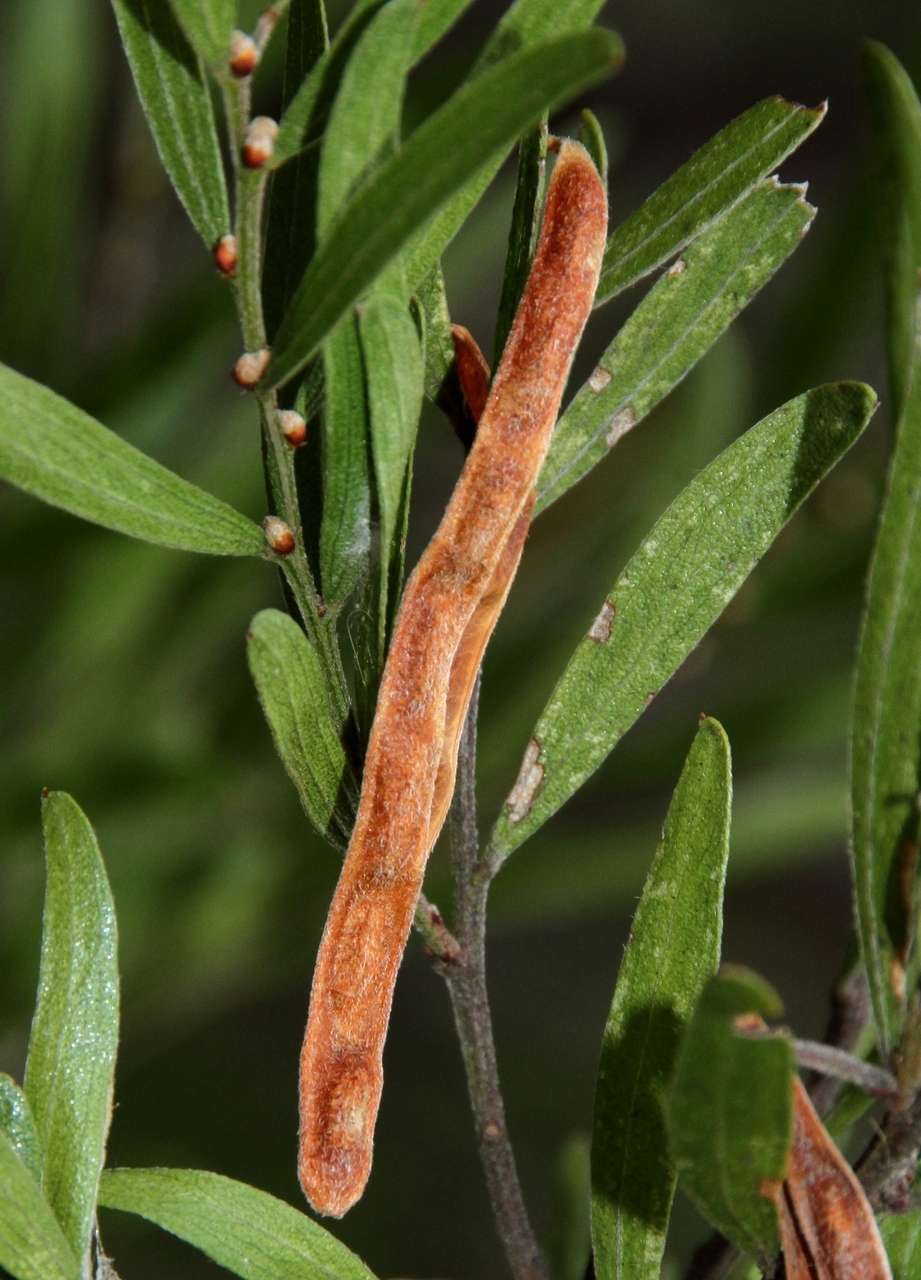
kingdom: Plantae
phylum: Tracheophyta
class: Magnoliopsida
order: Fabales
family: Fabaceae
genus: Acacia
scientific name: Acacia rostriformis
